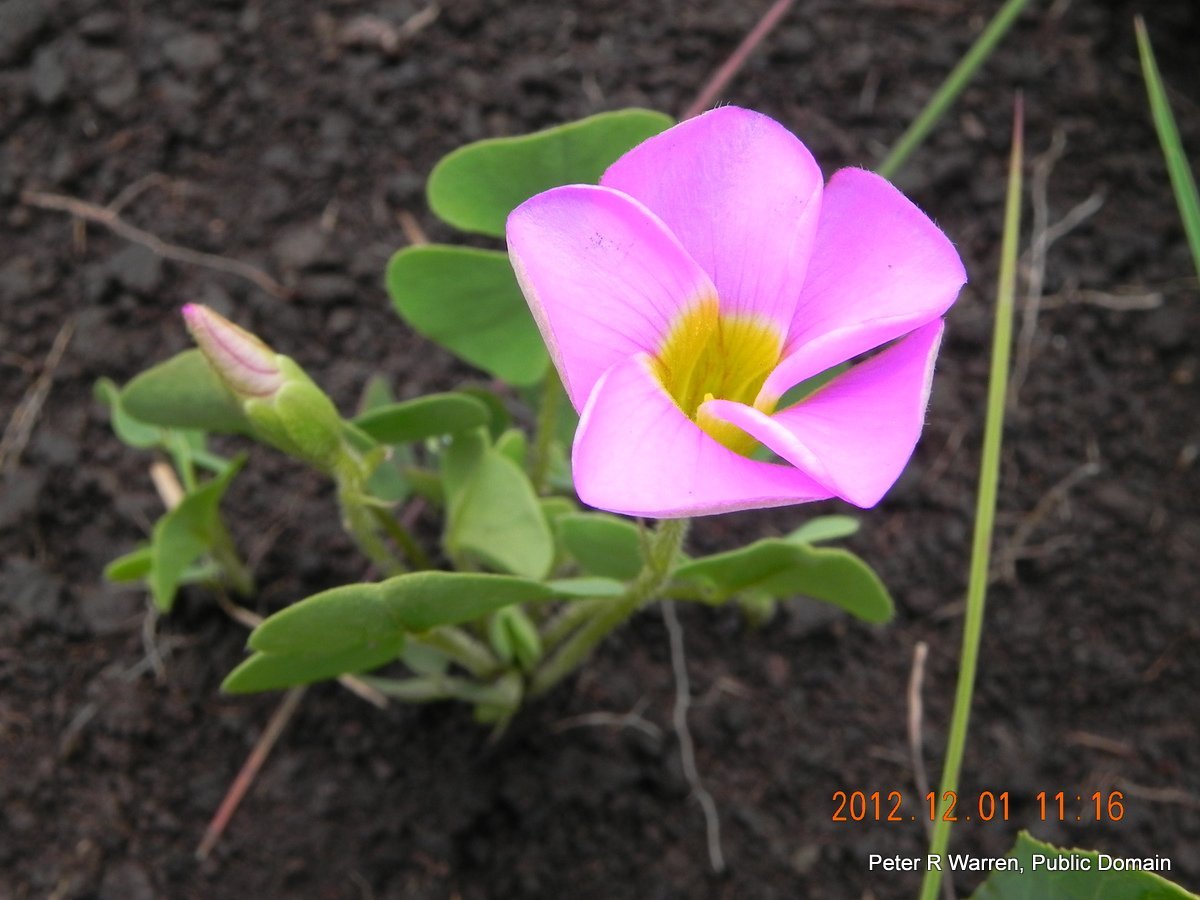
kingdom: Plantae
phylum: Tracheophyta
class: Magnoliopsida
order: Oxalidales
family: Oxalidaceae
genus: Oxalis
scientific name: Oxalis obliquifolia
